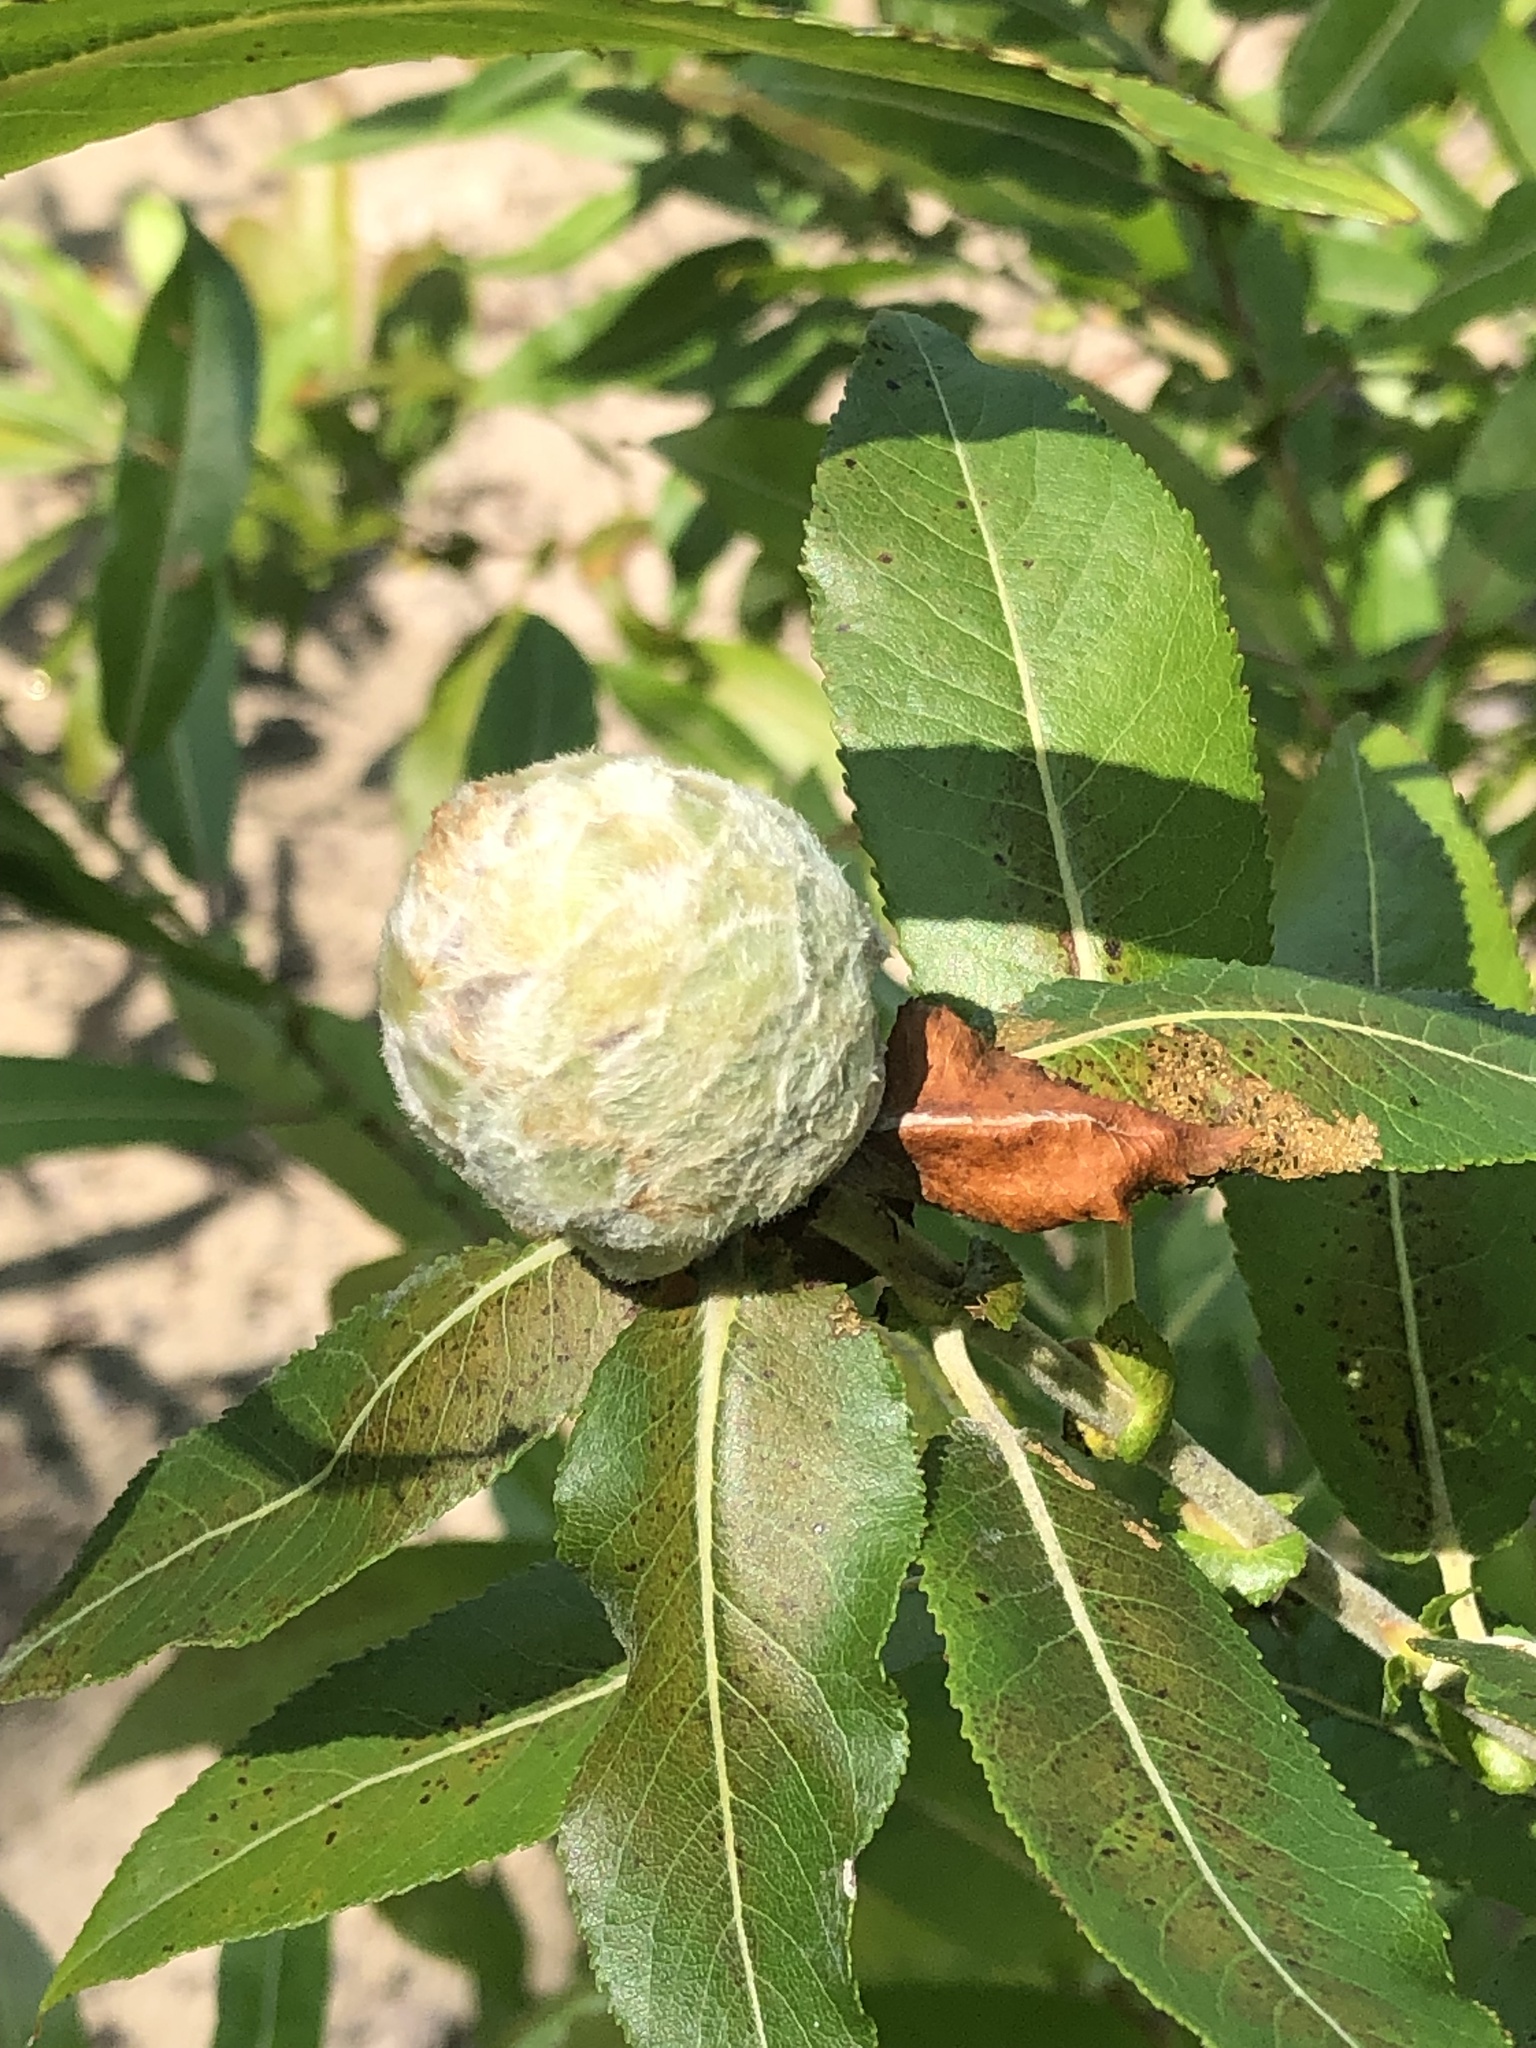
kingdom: Animalia
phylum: Arthropoda
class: Insecta
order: Diptera
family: Cecidomyiidae
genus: Rabdophaga
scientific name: Rabdophaga strobiloides
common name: Willow pinecone gall midge
